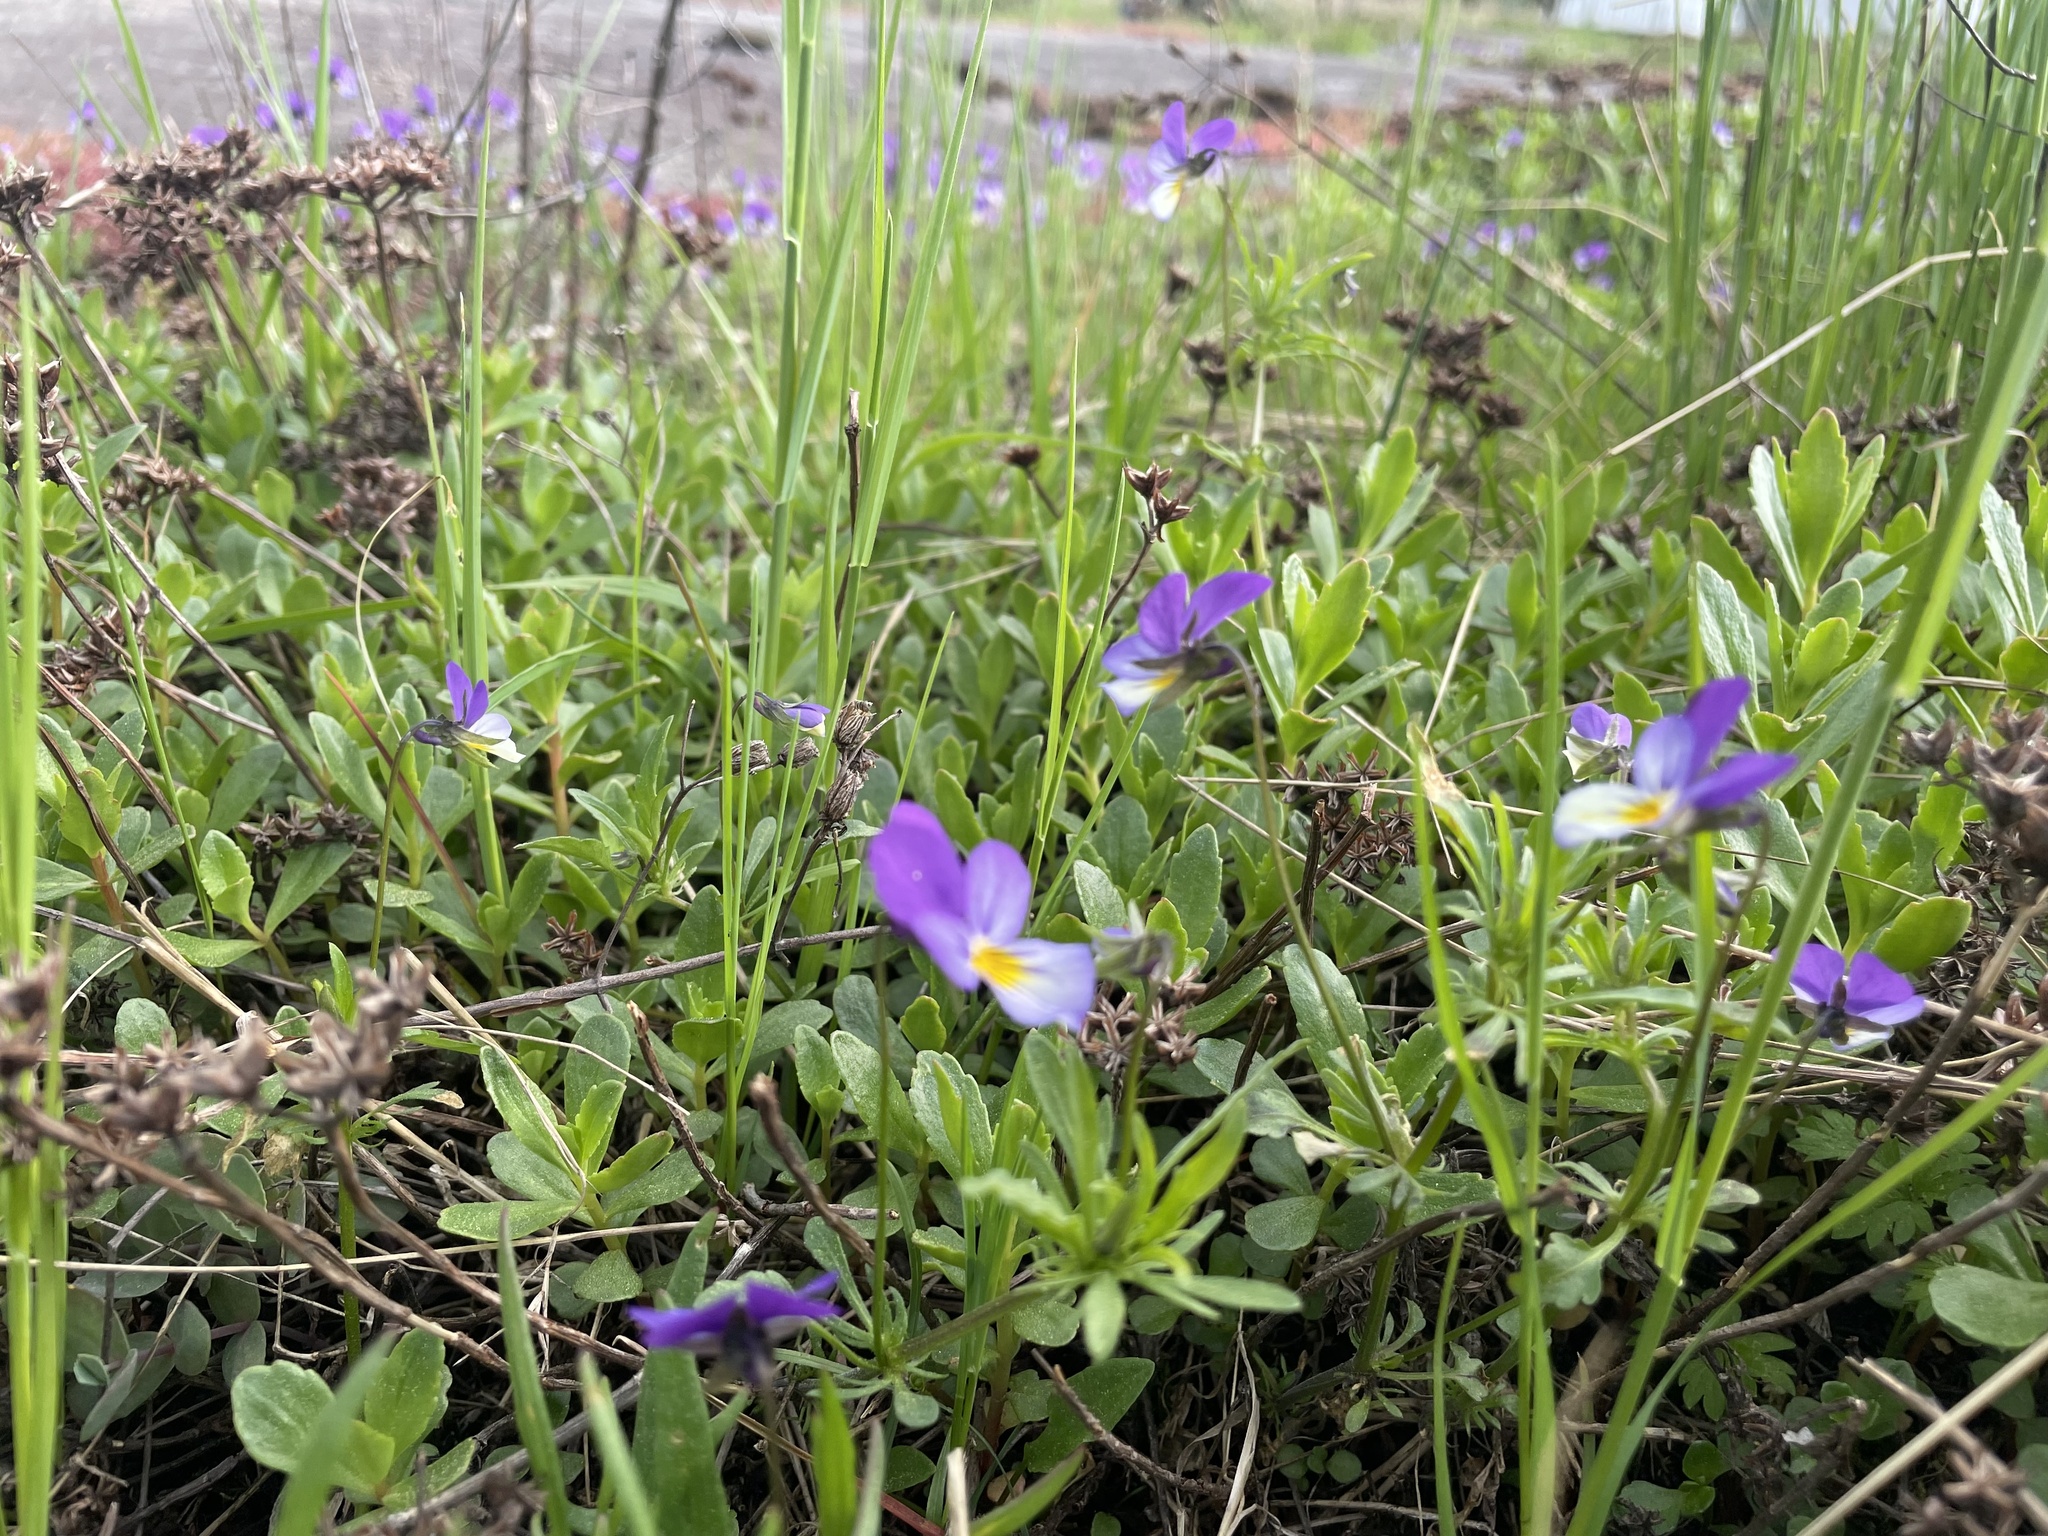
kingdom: Plantae
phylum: Tracheophyta
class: Magnoliopsida
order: Malpighiales
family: Violaceae
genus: Viola
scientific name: Viola tricolor
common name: Pansy
